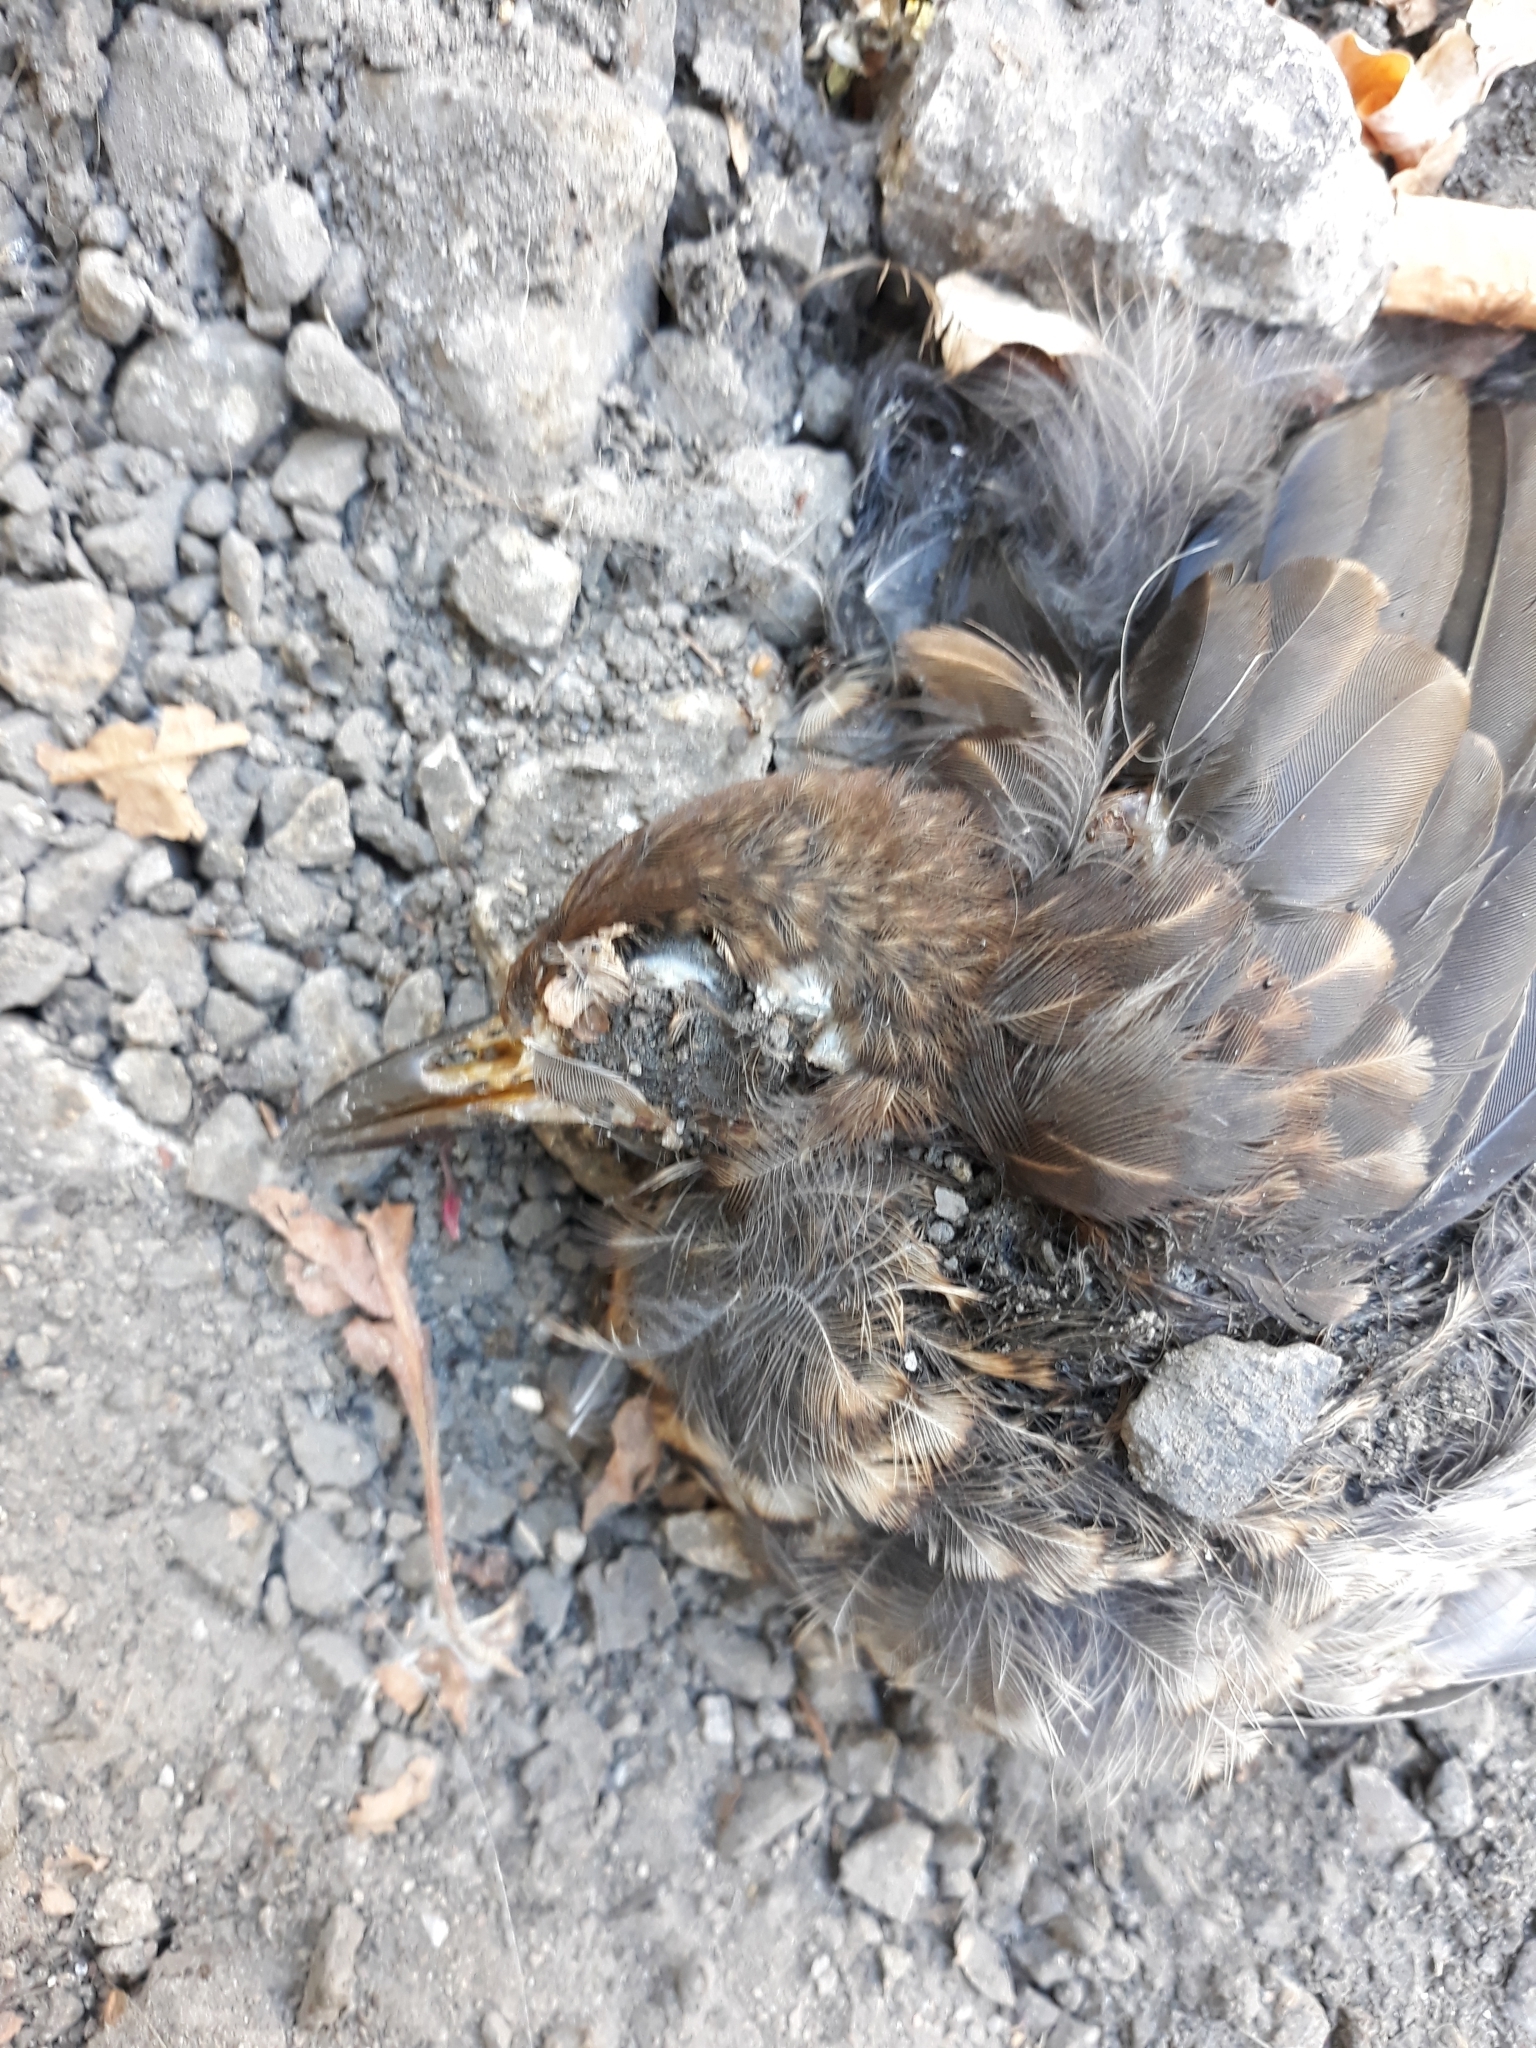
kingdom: Animalia
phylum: Chordata
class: Aves
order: Passeriformes
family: Turdidae
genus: Turdus
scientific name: Turdus merula
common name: Common blackbird
